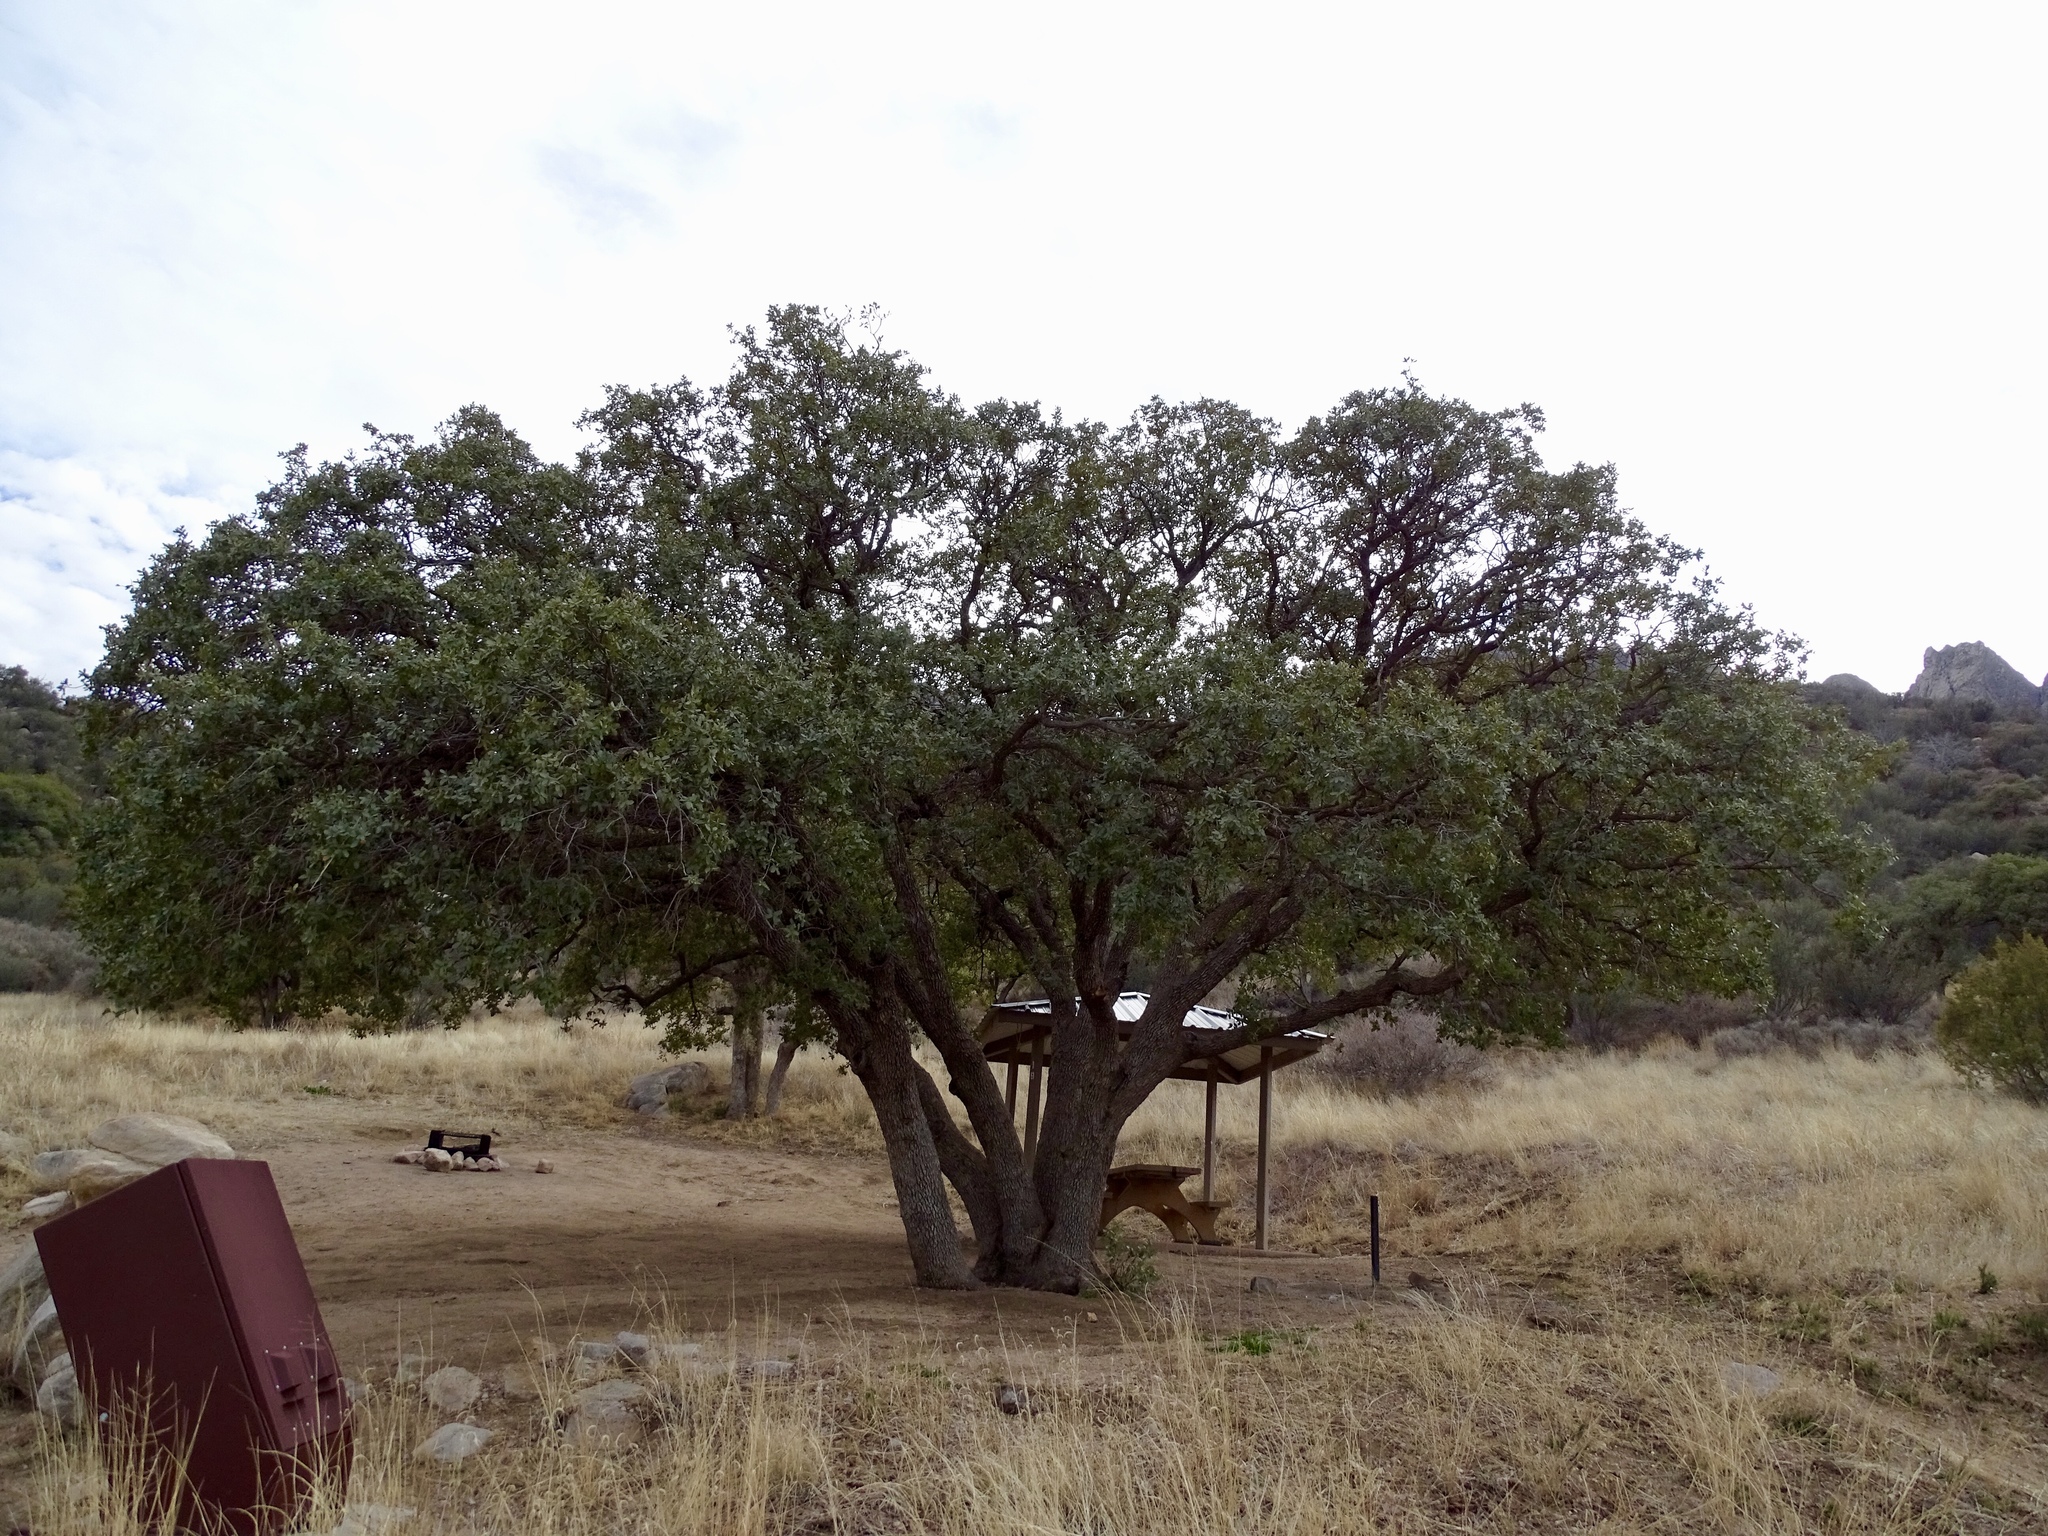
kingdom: Plantae
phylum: Tracheophyta
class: Magnoliopsida
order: Fagales
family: Fagaceae
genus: Quercus
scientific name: Quercus arizonica
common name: Arizona white oak
